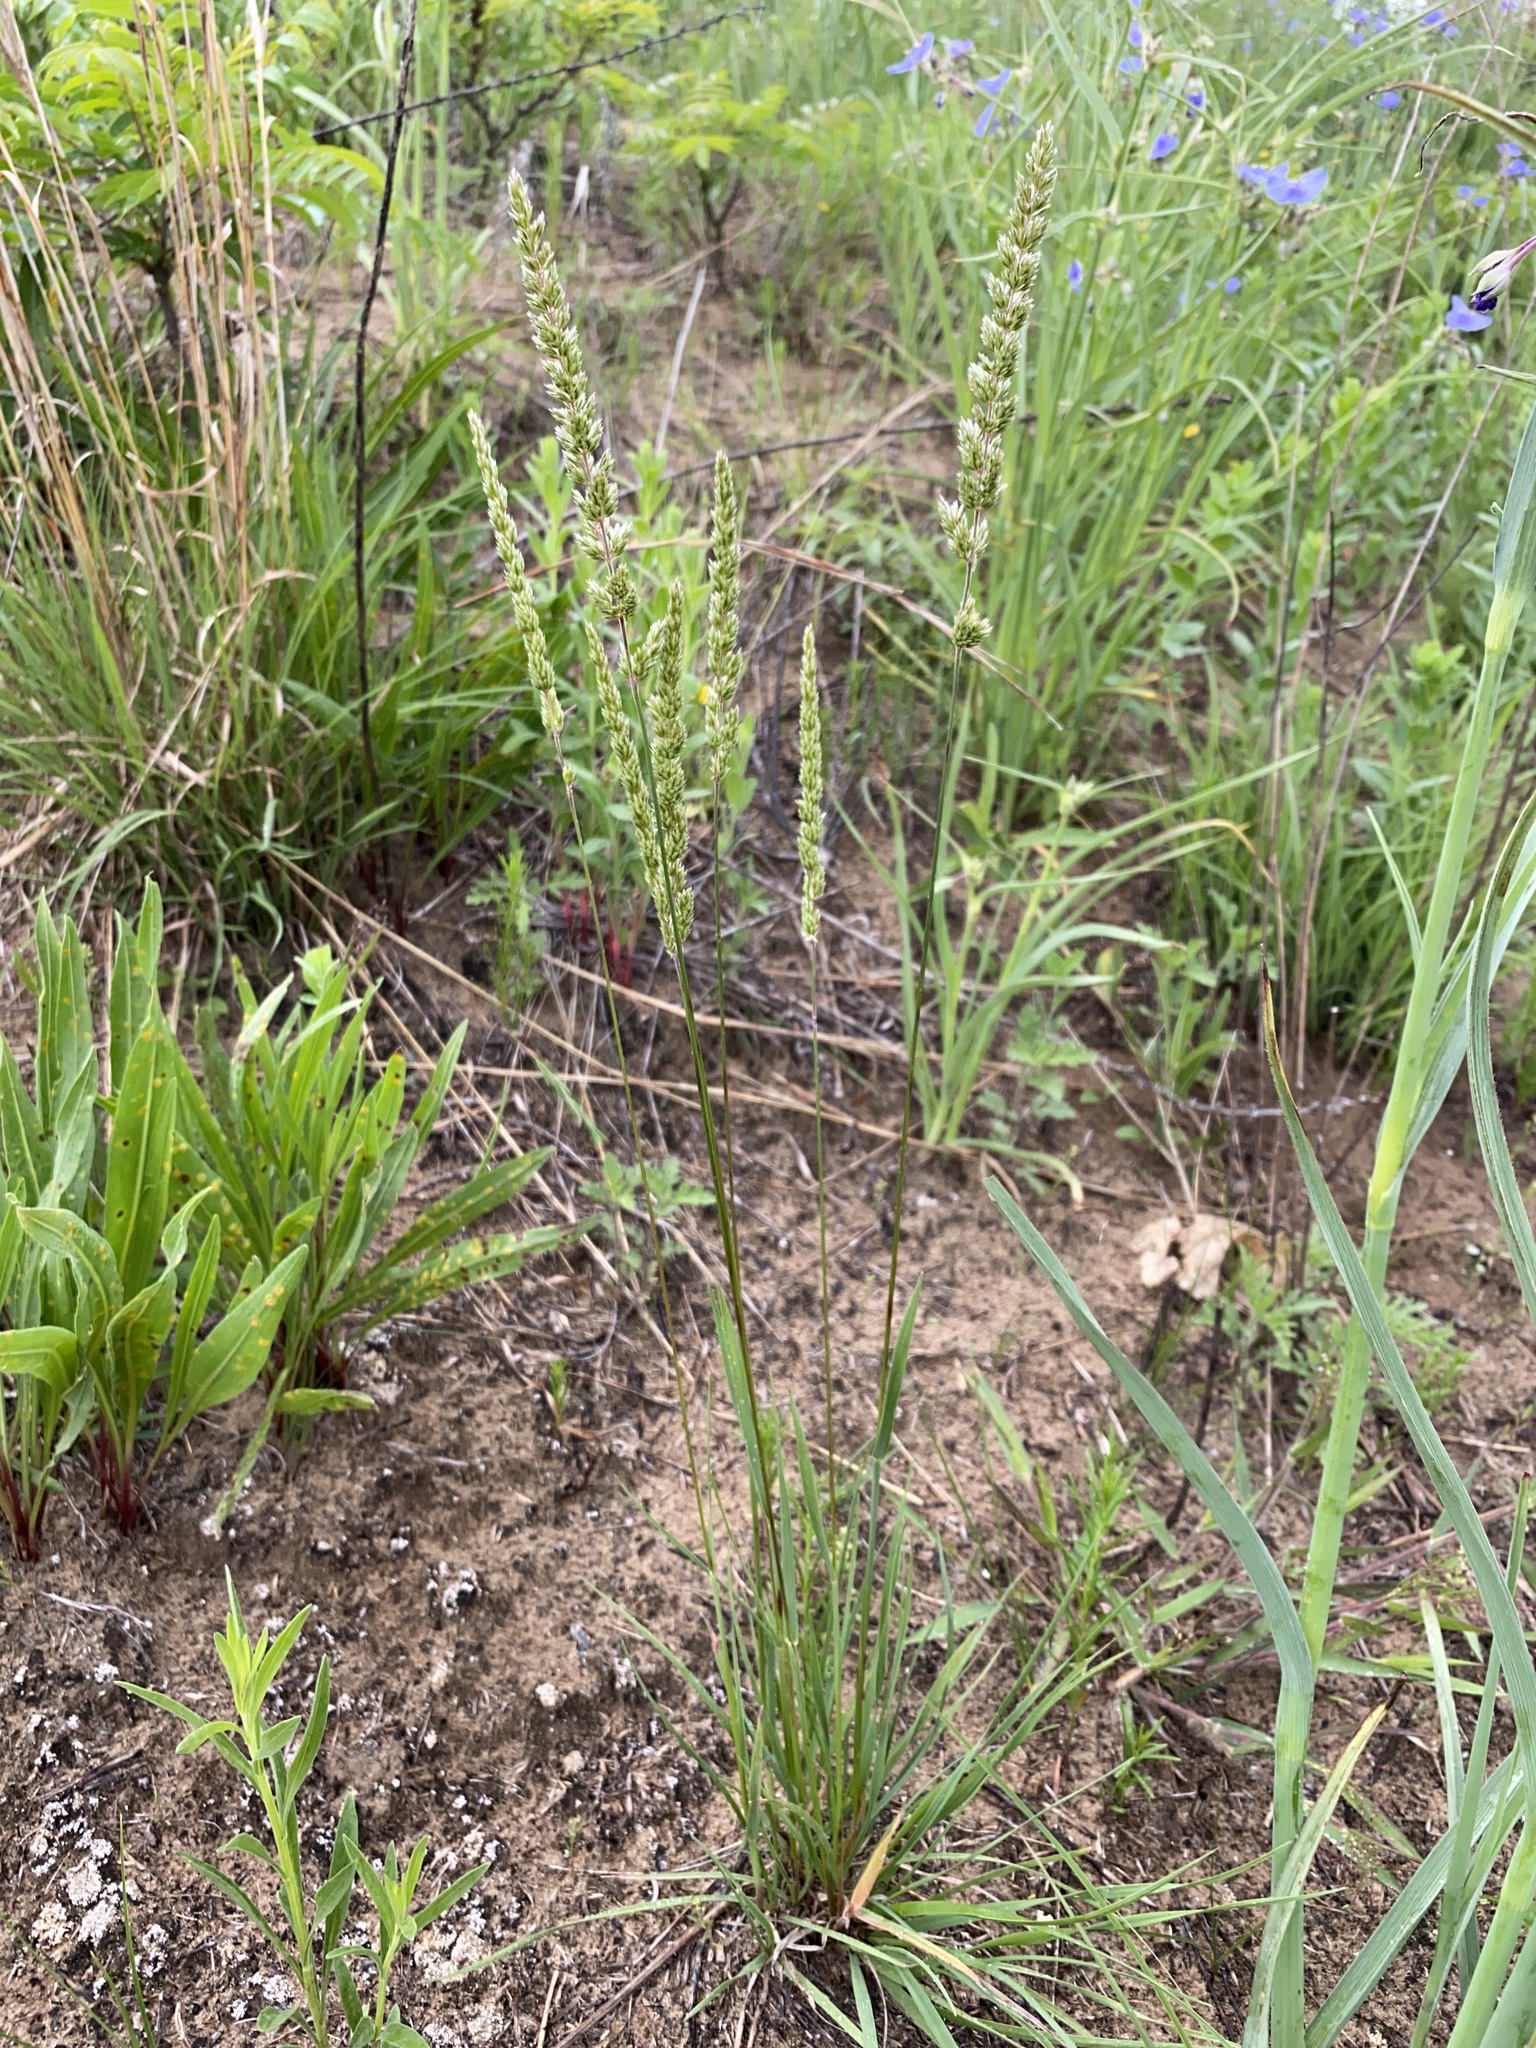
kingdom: Plantae
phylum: Tracheophyta
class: Liliopsida
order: Poales
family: Poaceae
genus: Koeleria
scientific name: Koeleria macrantha
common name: Crested hair-grass
